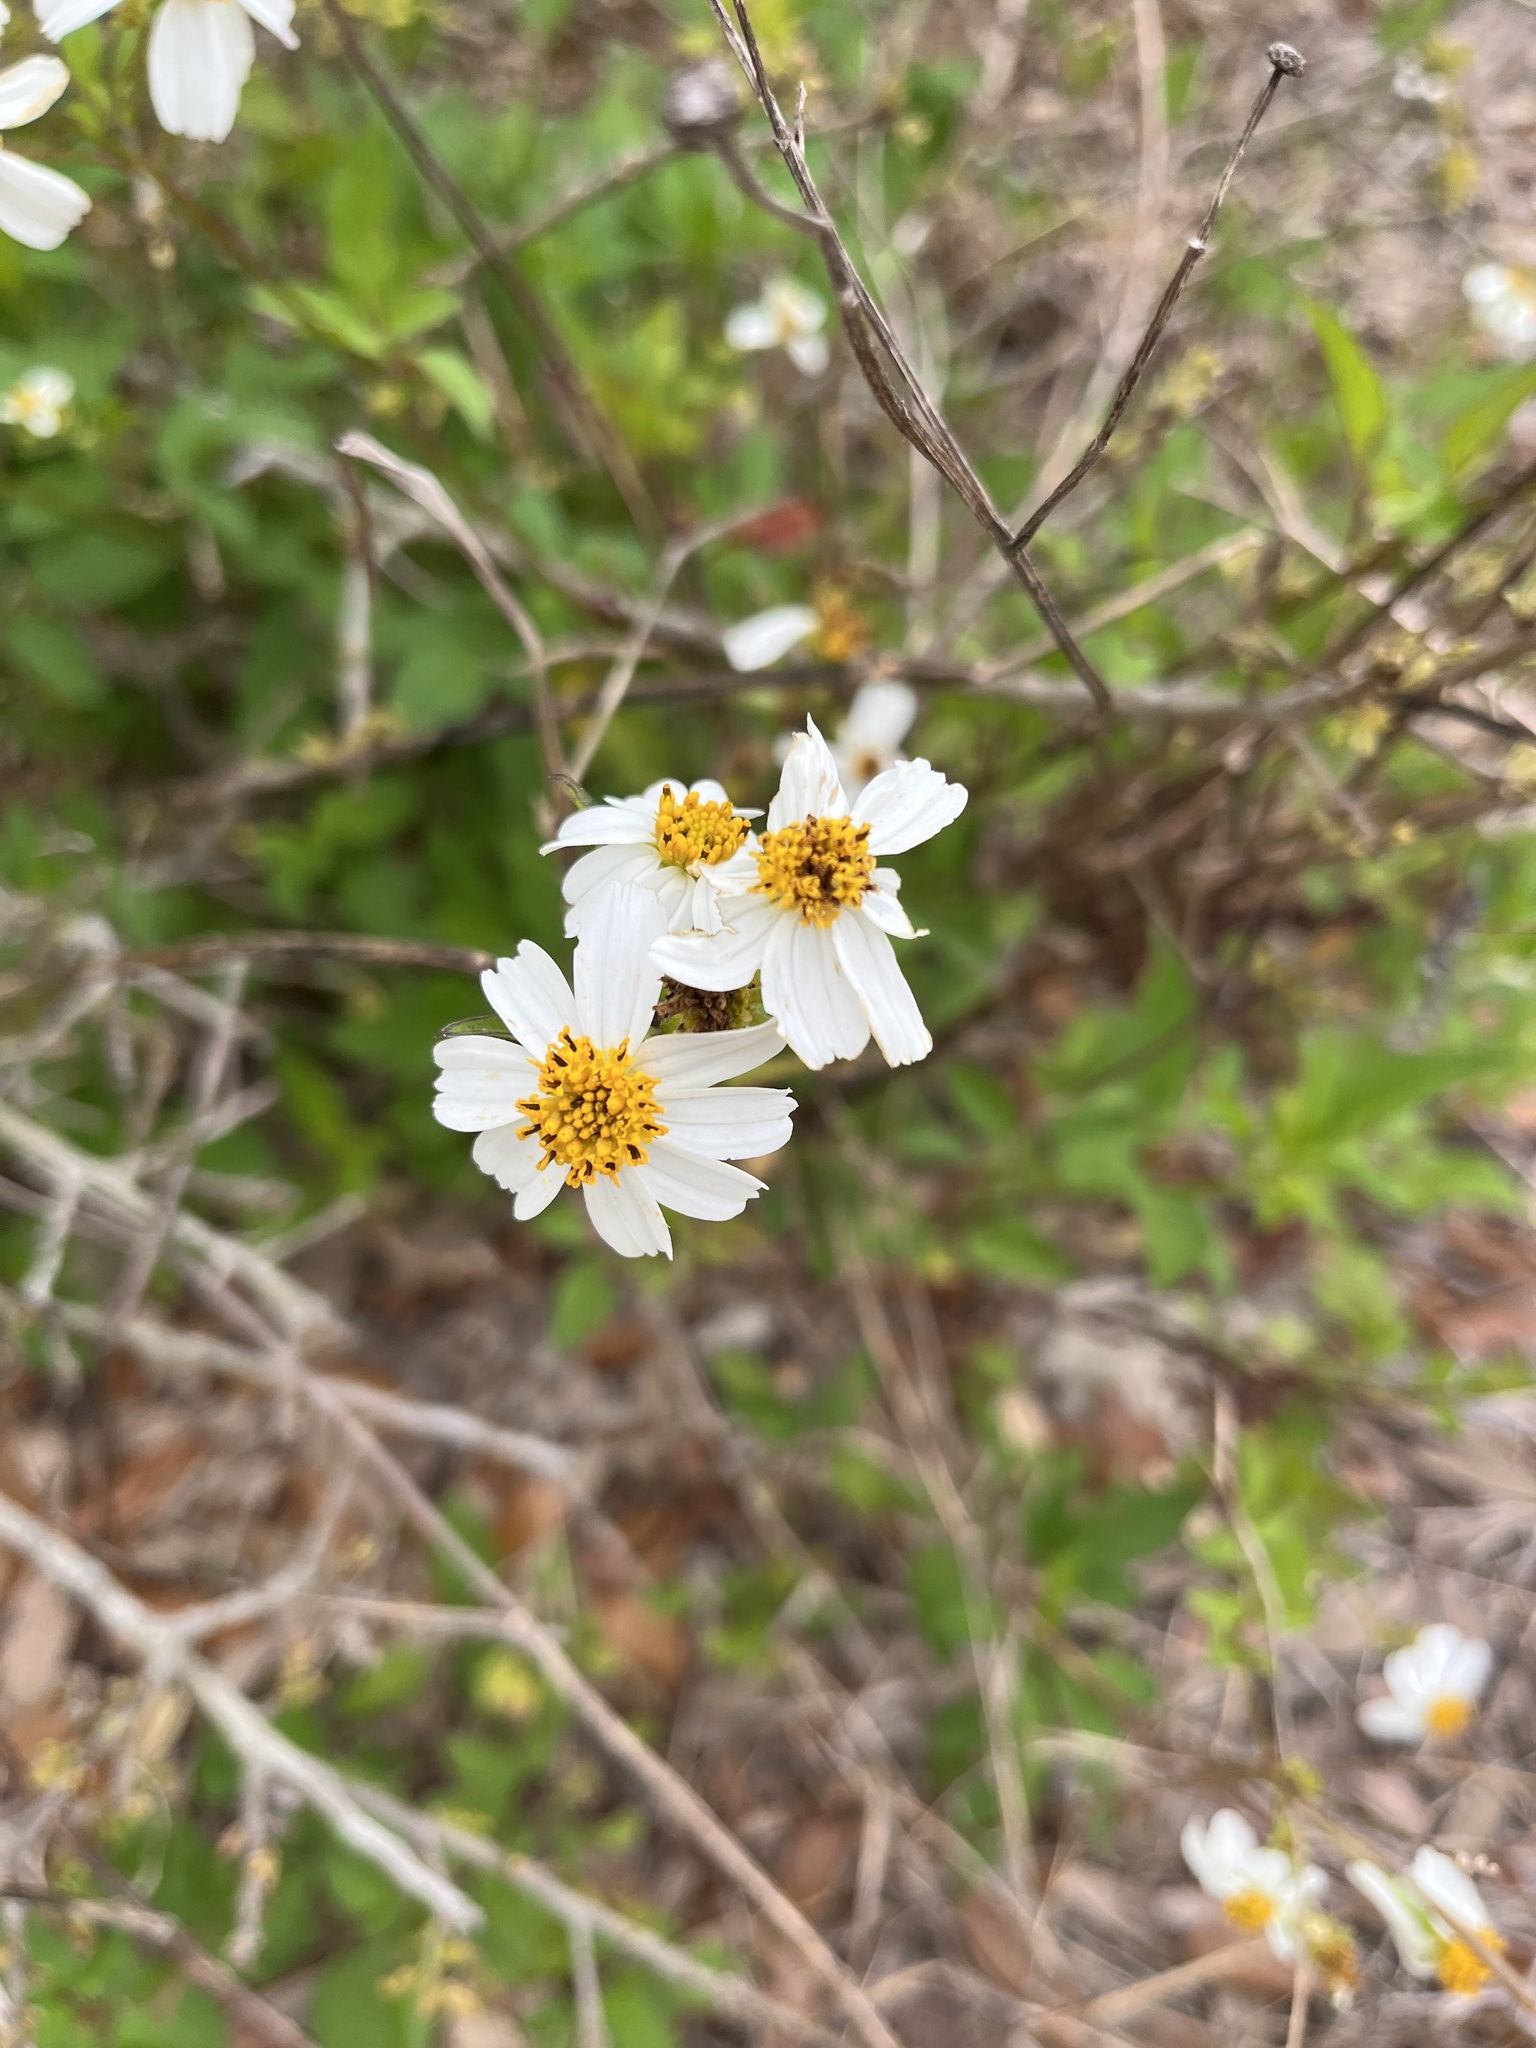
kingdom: Plantae
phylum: Tracheophyta
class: Magnoliopsida
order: Asterales
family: Asteraceae
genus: Bidens
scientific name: Bidens alba
